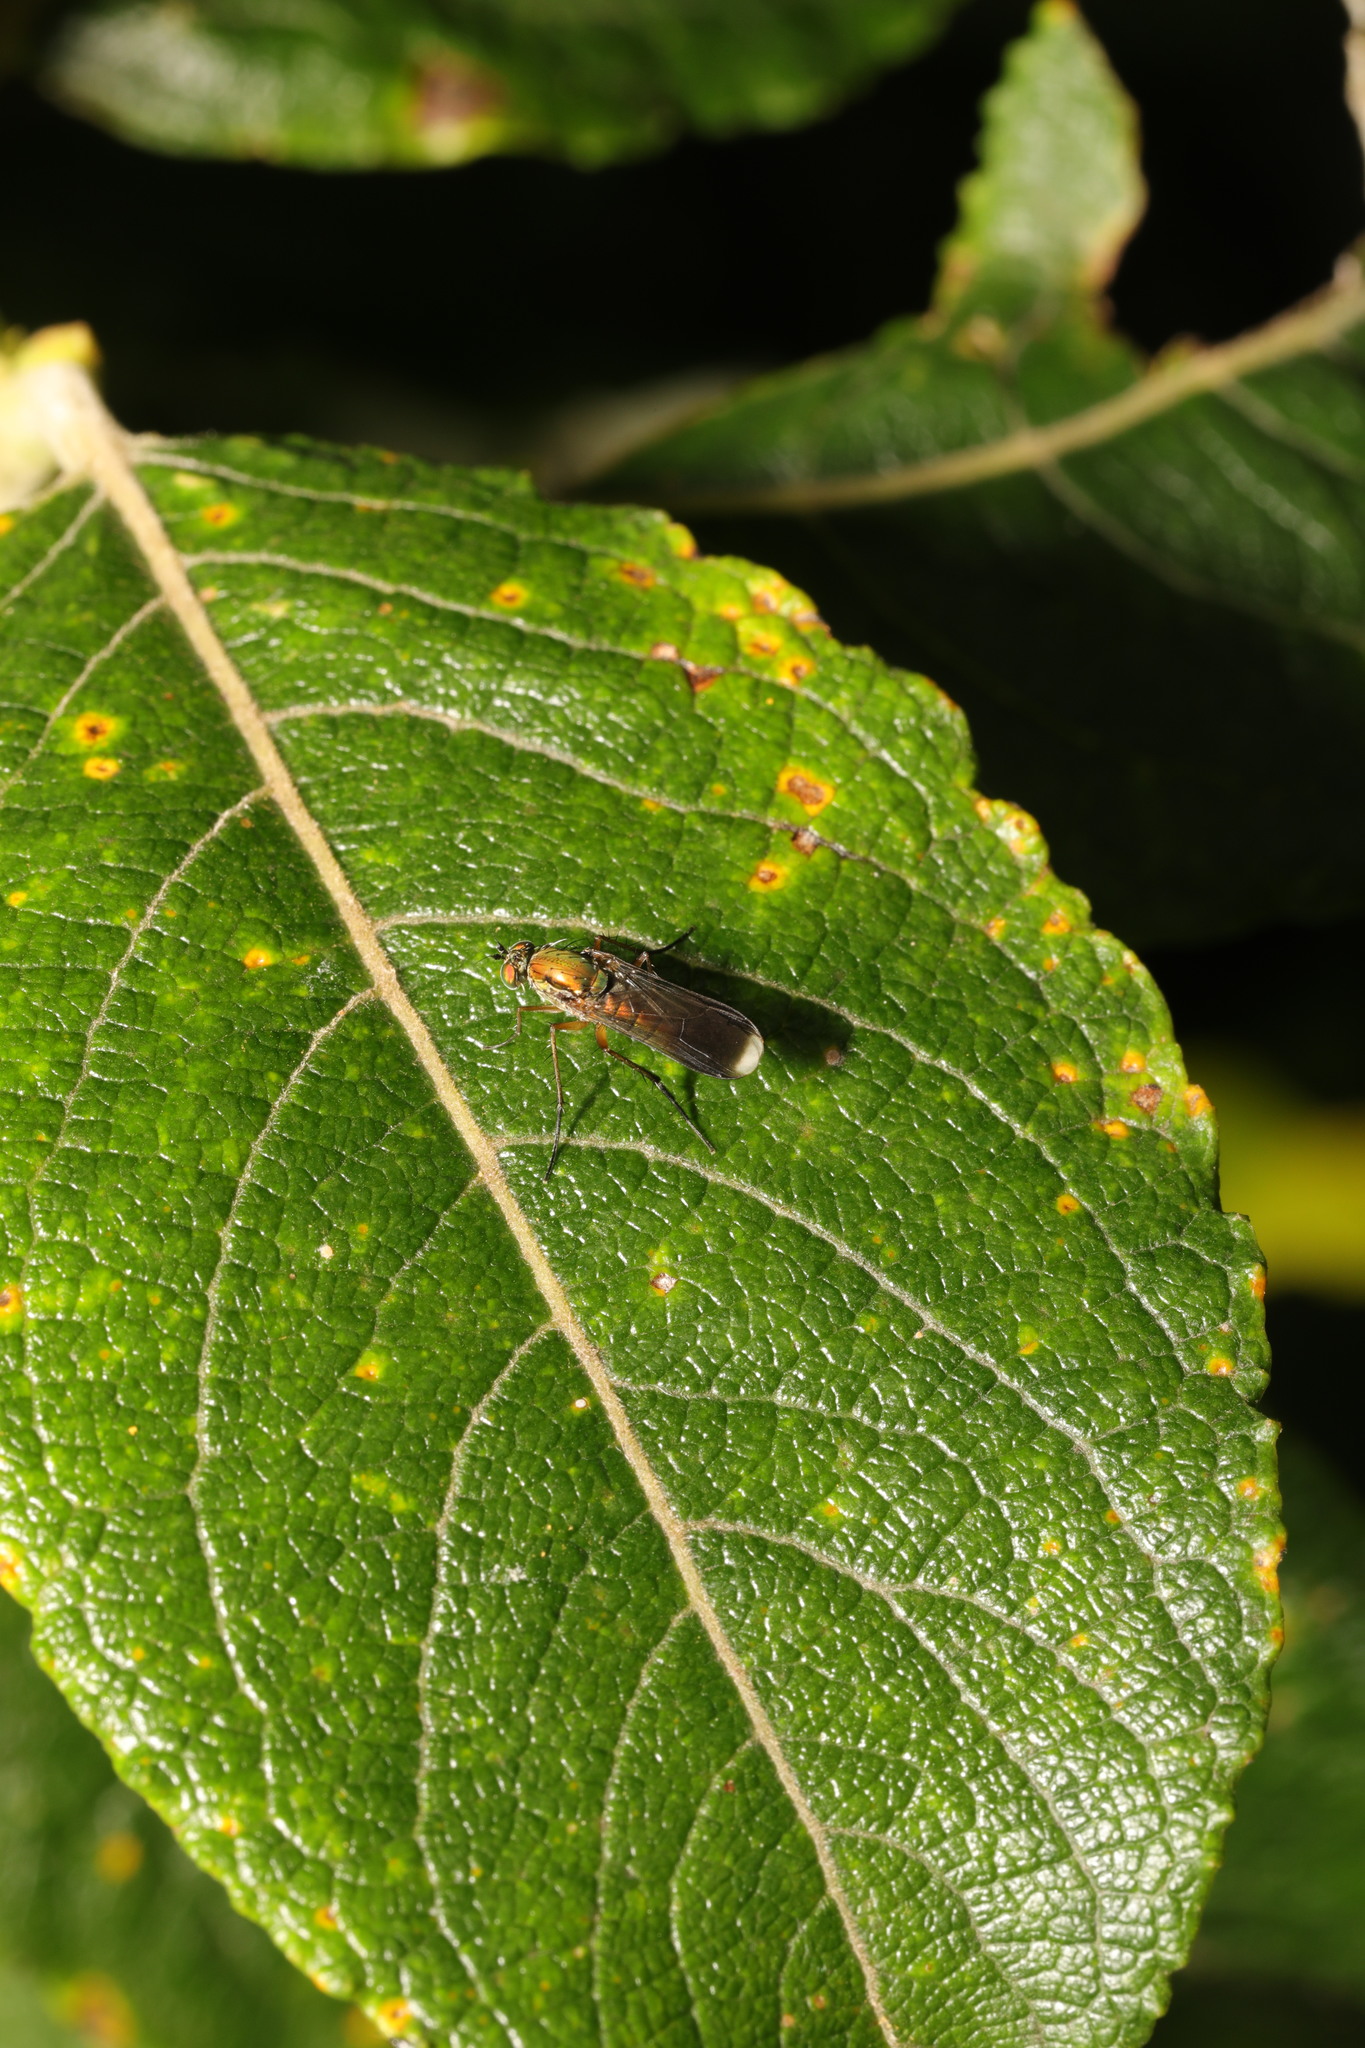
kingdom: Animalia
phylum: Arthropoda
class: Insecta
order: Diptera
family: Dolichopodidae
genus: Poecilobothrus
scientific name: Poecilobothrus nobilitatus
